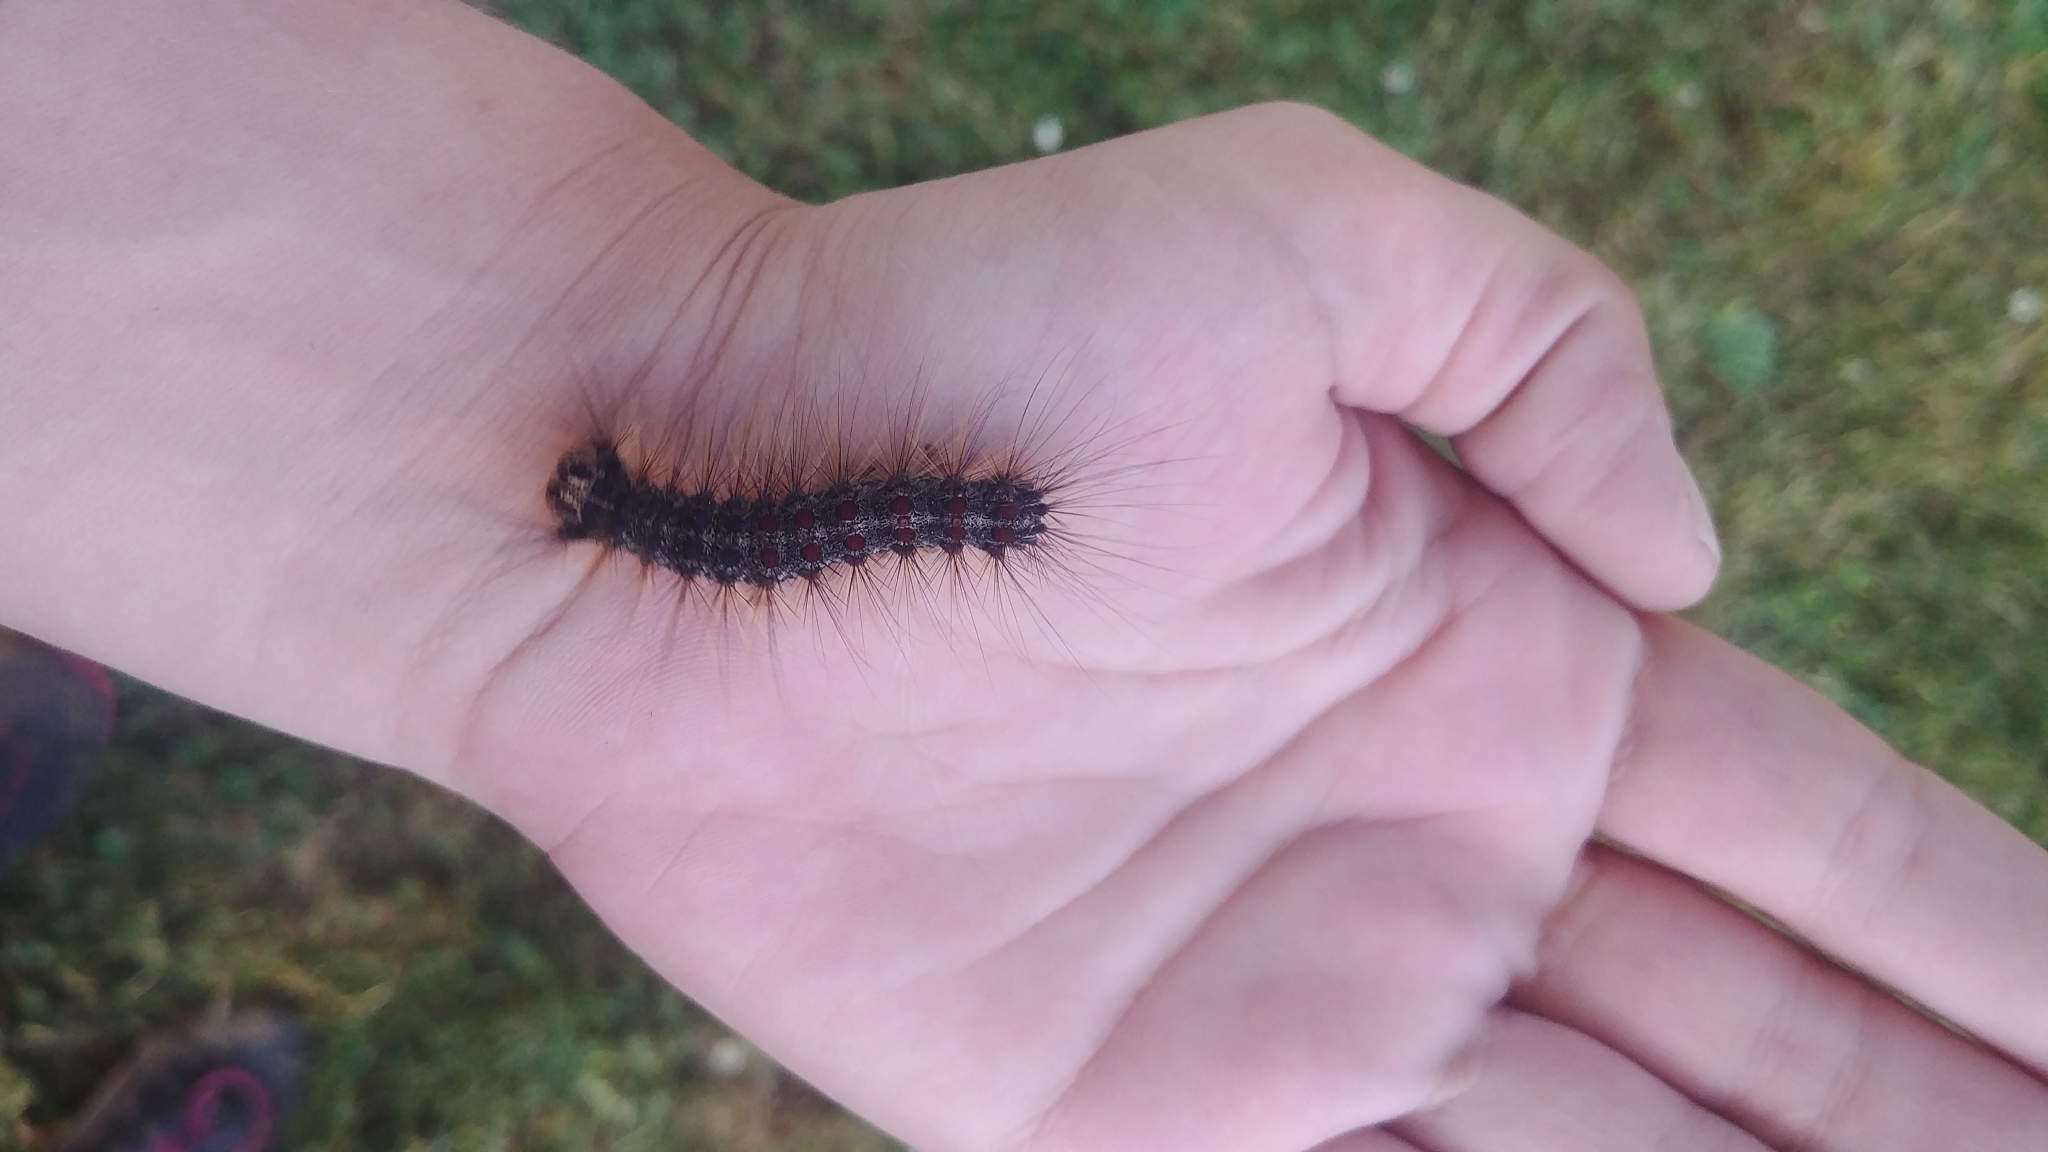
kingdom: Animalia
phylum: Arthropoda
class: Insecta
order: Lepidoptera
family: Erebidae
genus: Lymantria
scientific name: Lymantria dispar
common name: Gypsy moth
